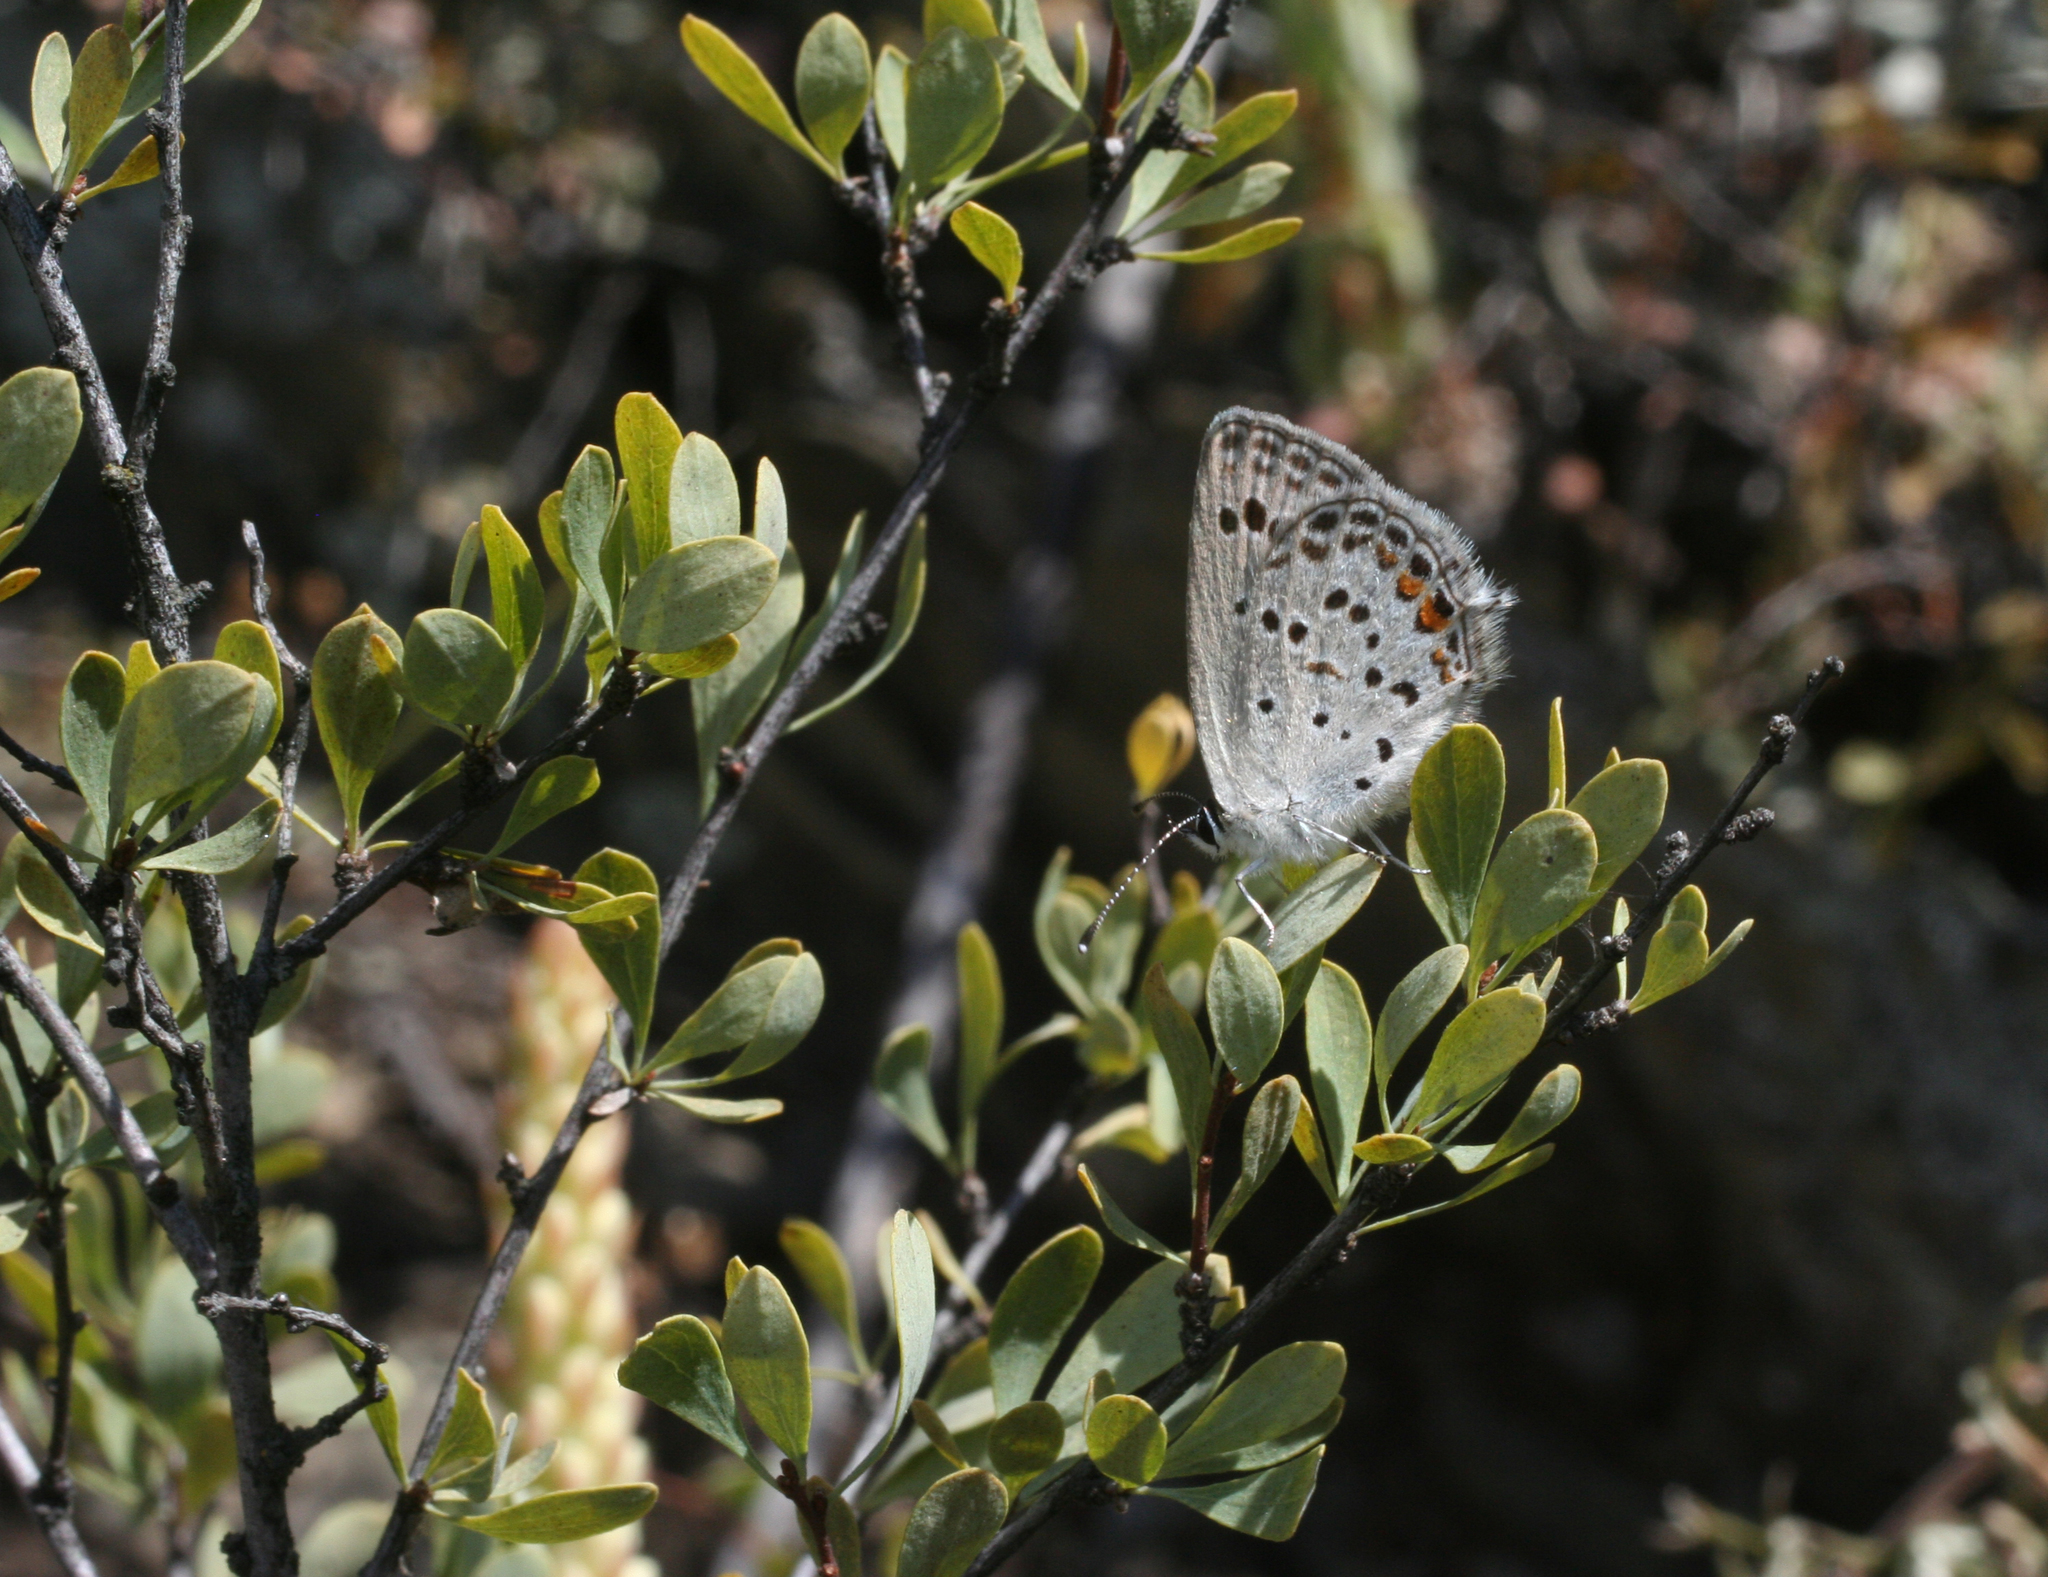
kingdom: Plantae
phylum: Tracheophyta
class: Magnoliopsida
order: Rosales
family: Rosaceae
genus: Spiraea
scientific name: Spiraea hypericifolia
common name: Iberian spirea
